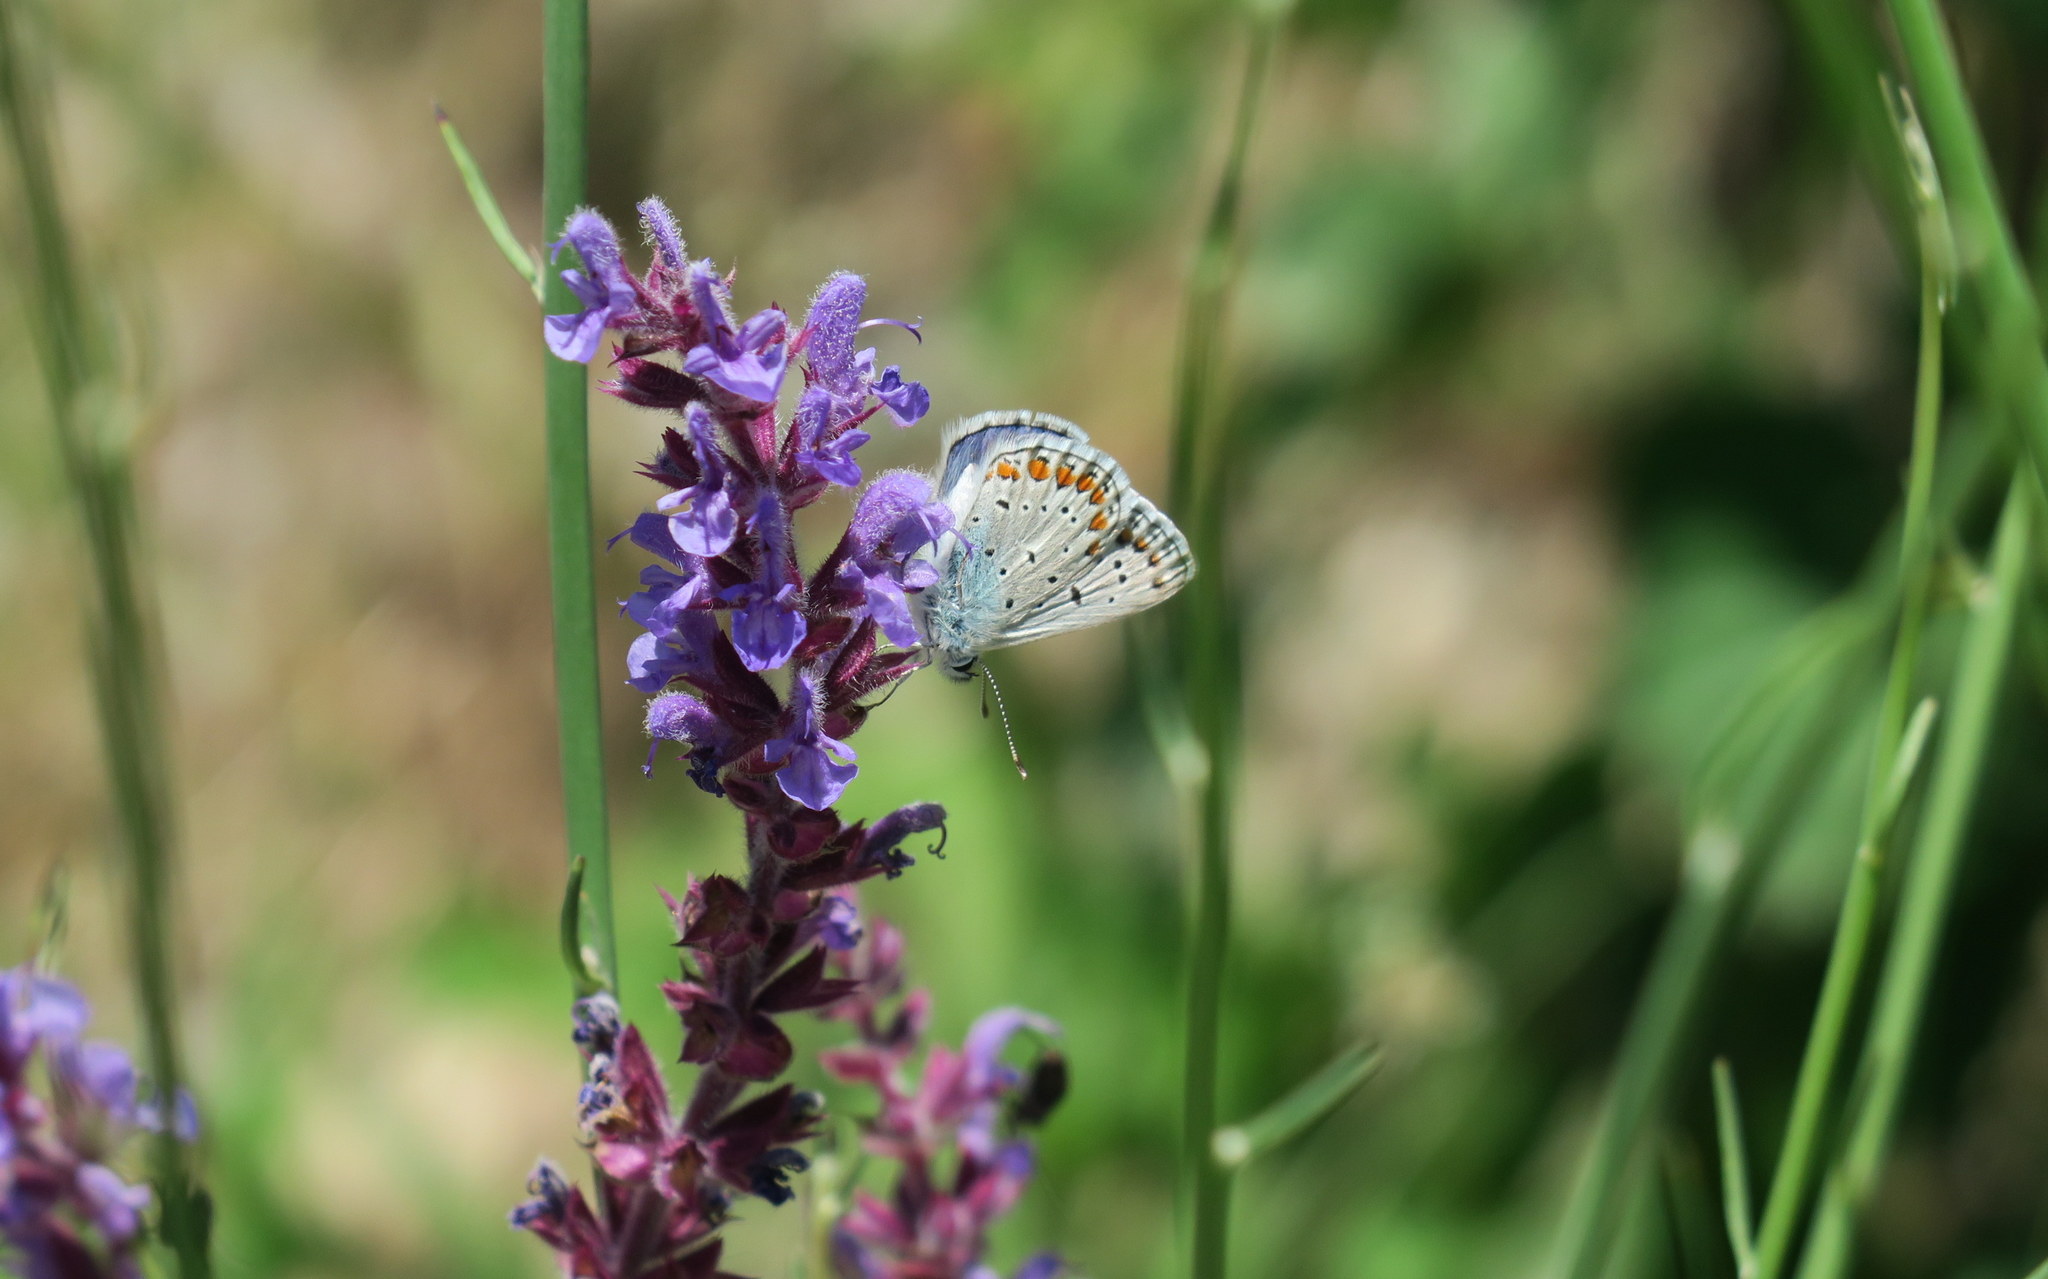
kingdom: Animalia
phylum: Arthropoda
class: Insecta
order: Lepidoptera
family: Lycaenidae
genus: Polyommatus
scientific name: Polyommatus icarus
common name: Common blue
